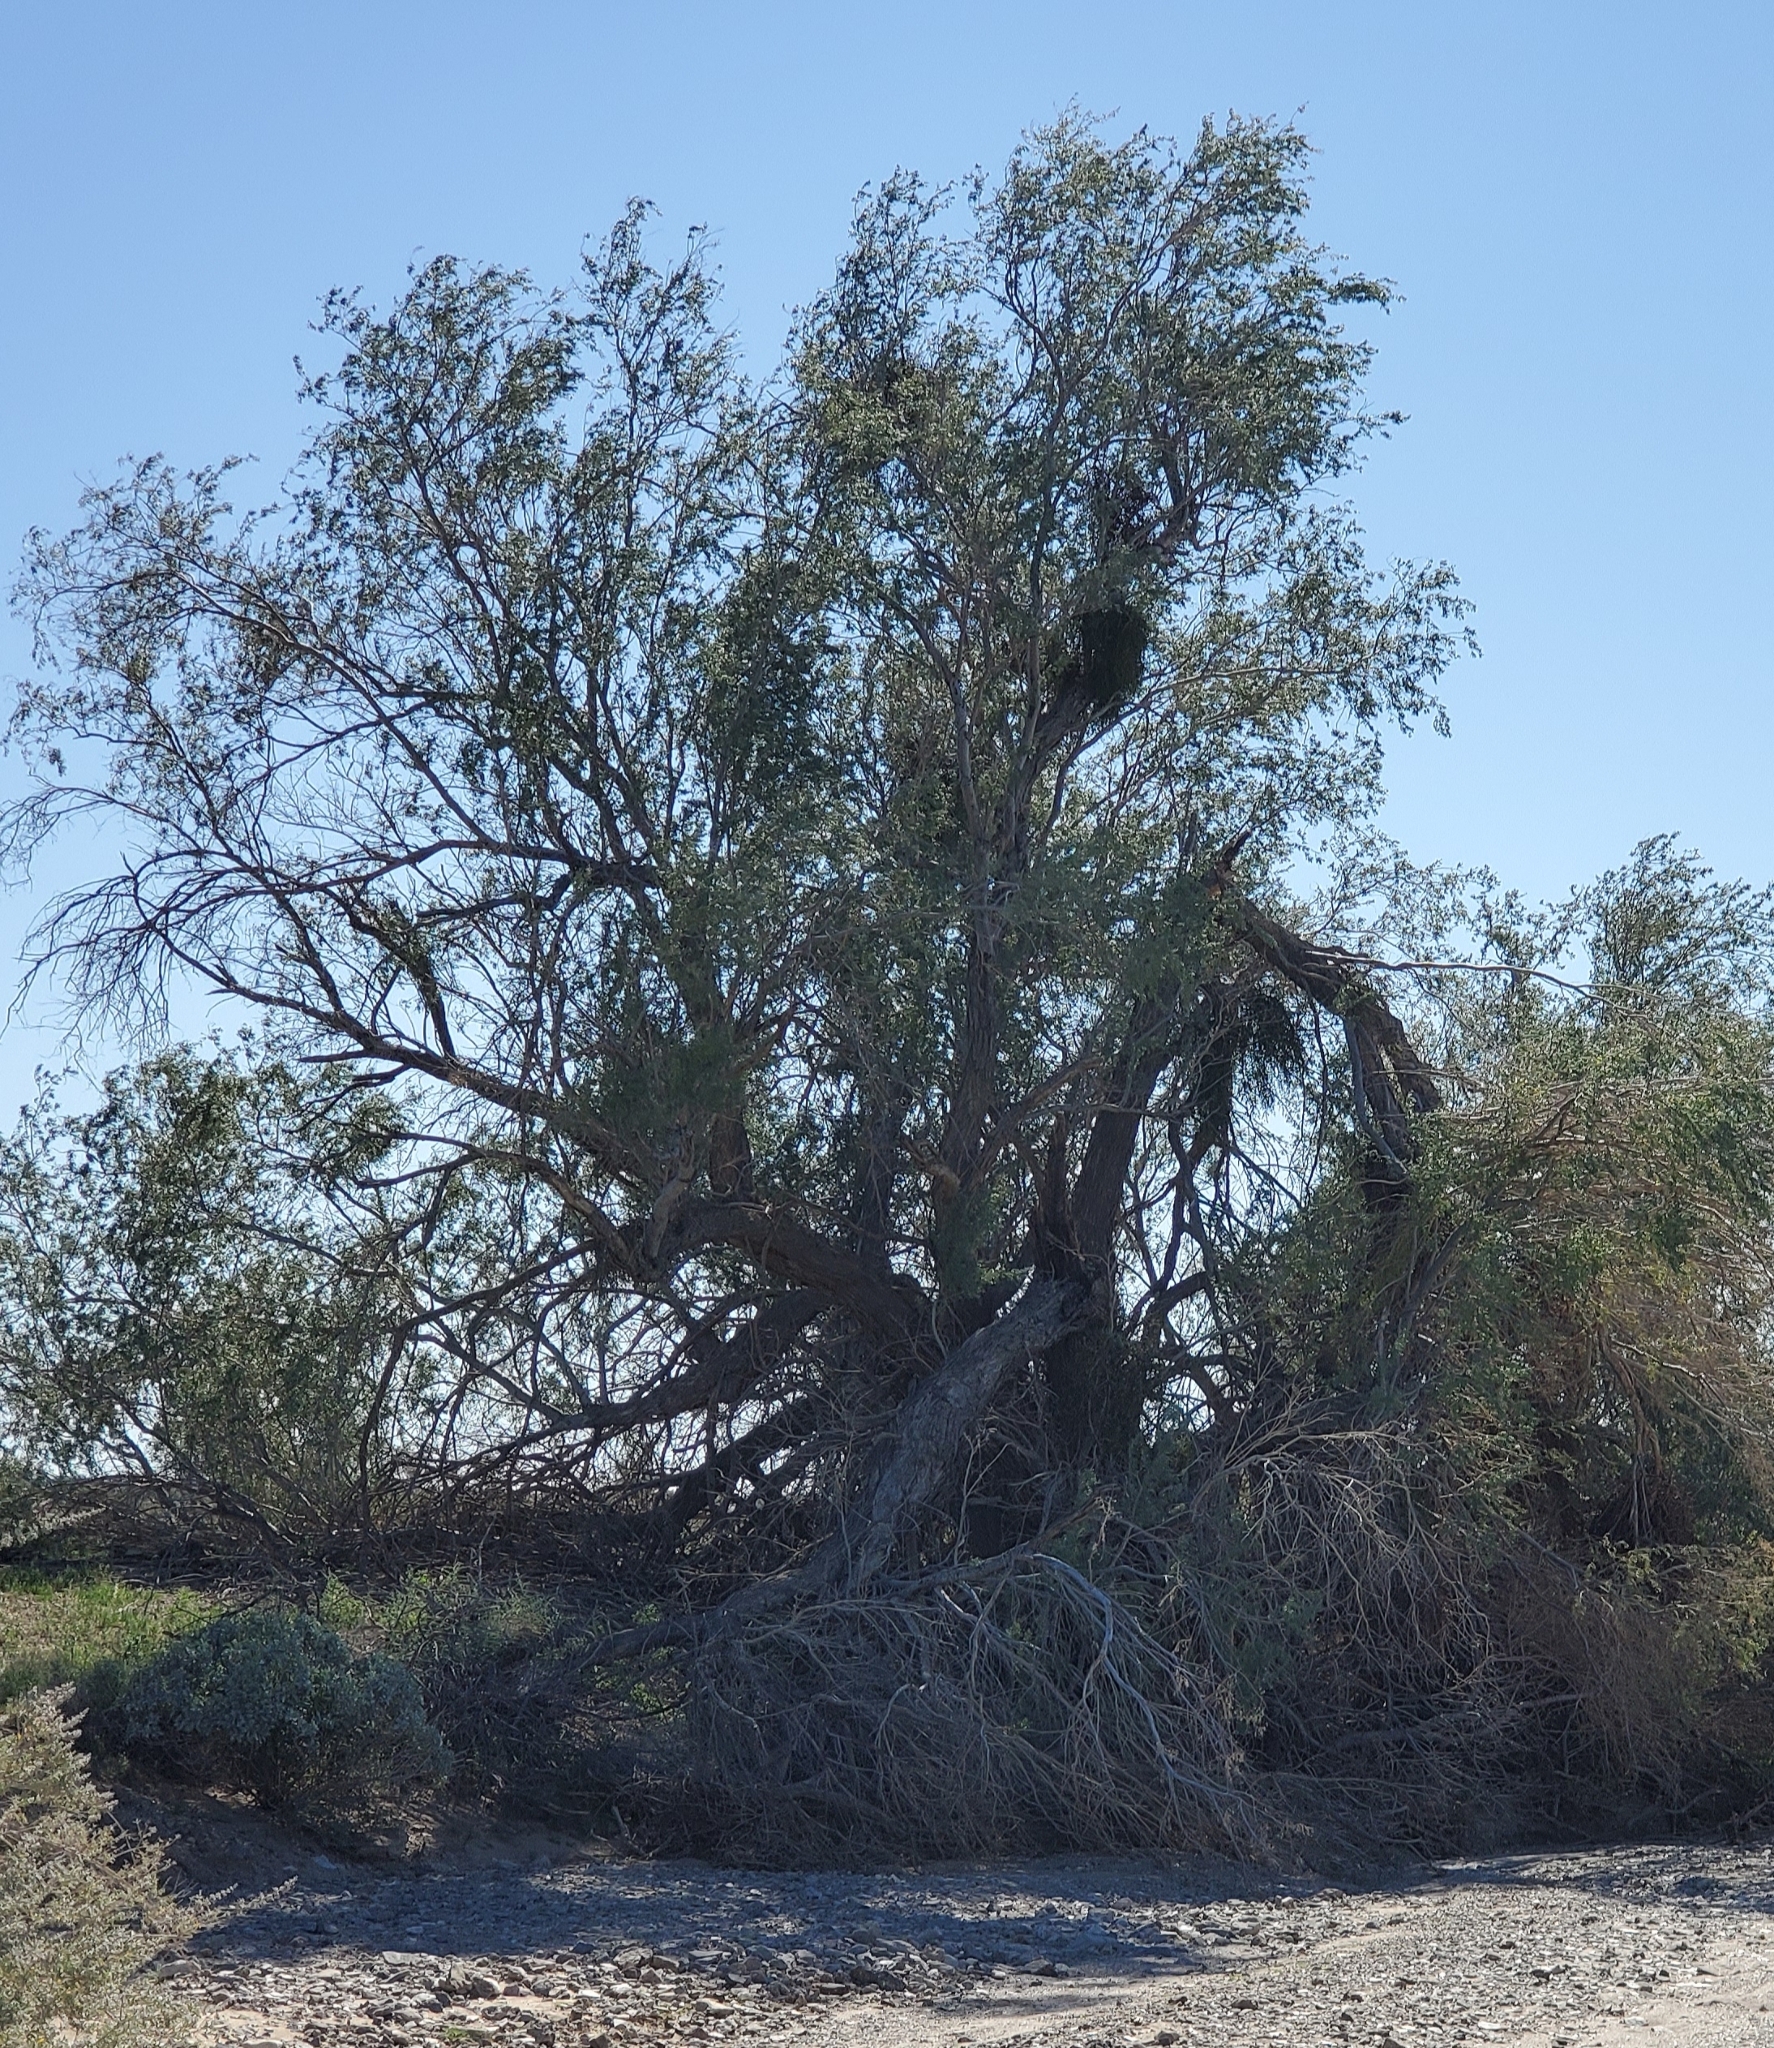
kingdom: Plantae
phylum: Tracheophyta
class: Magnoliopsida
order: Santalales
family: Viscaceae
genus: Phoradendron
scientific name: Phoradendron californicum
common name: Acacia mistletoe
